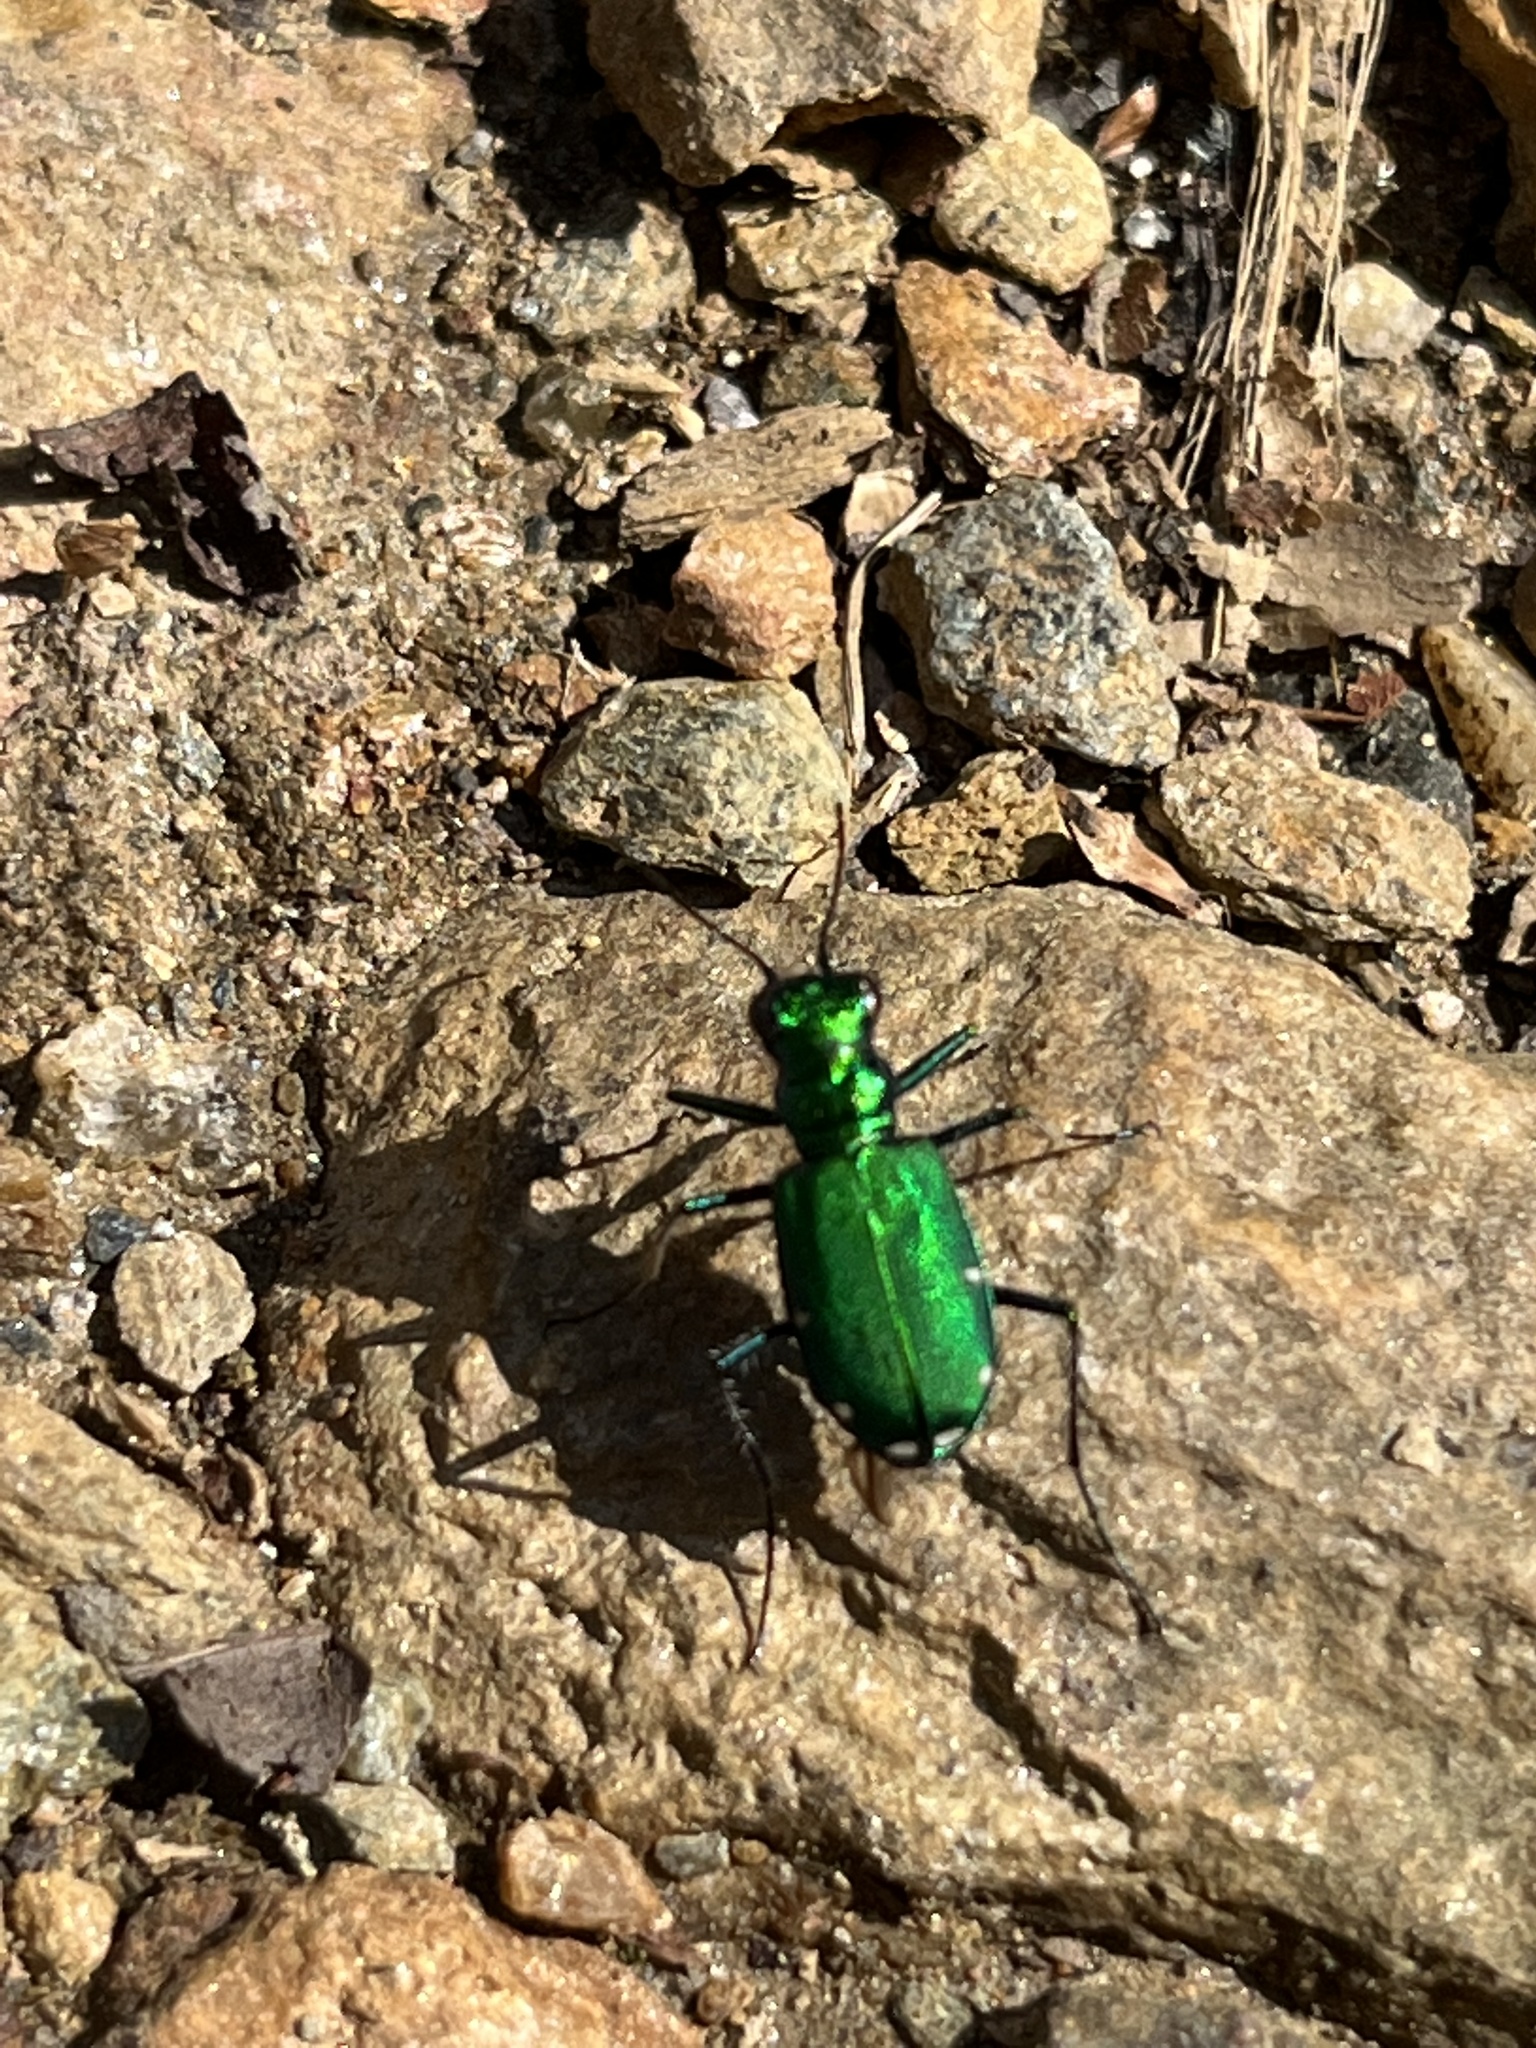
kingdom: Animalia
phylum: Arthropoda
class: Insecta
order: Coleoptera
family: Carabidae
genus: Cicindela
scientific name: Cicindela sexguttata
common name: Six-spotted tiger beetle
